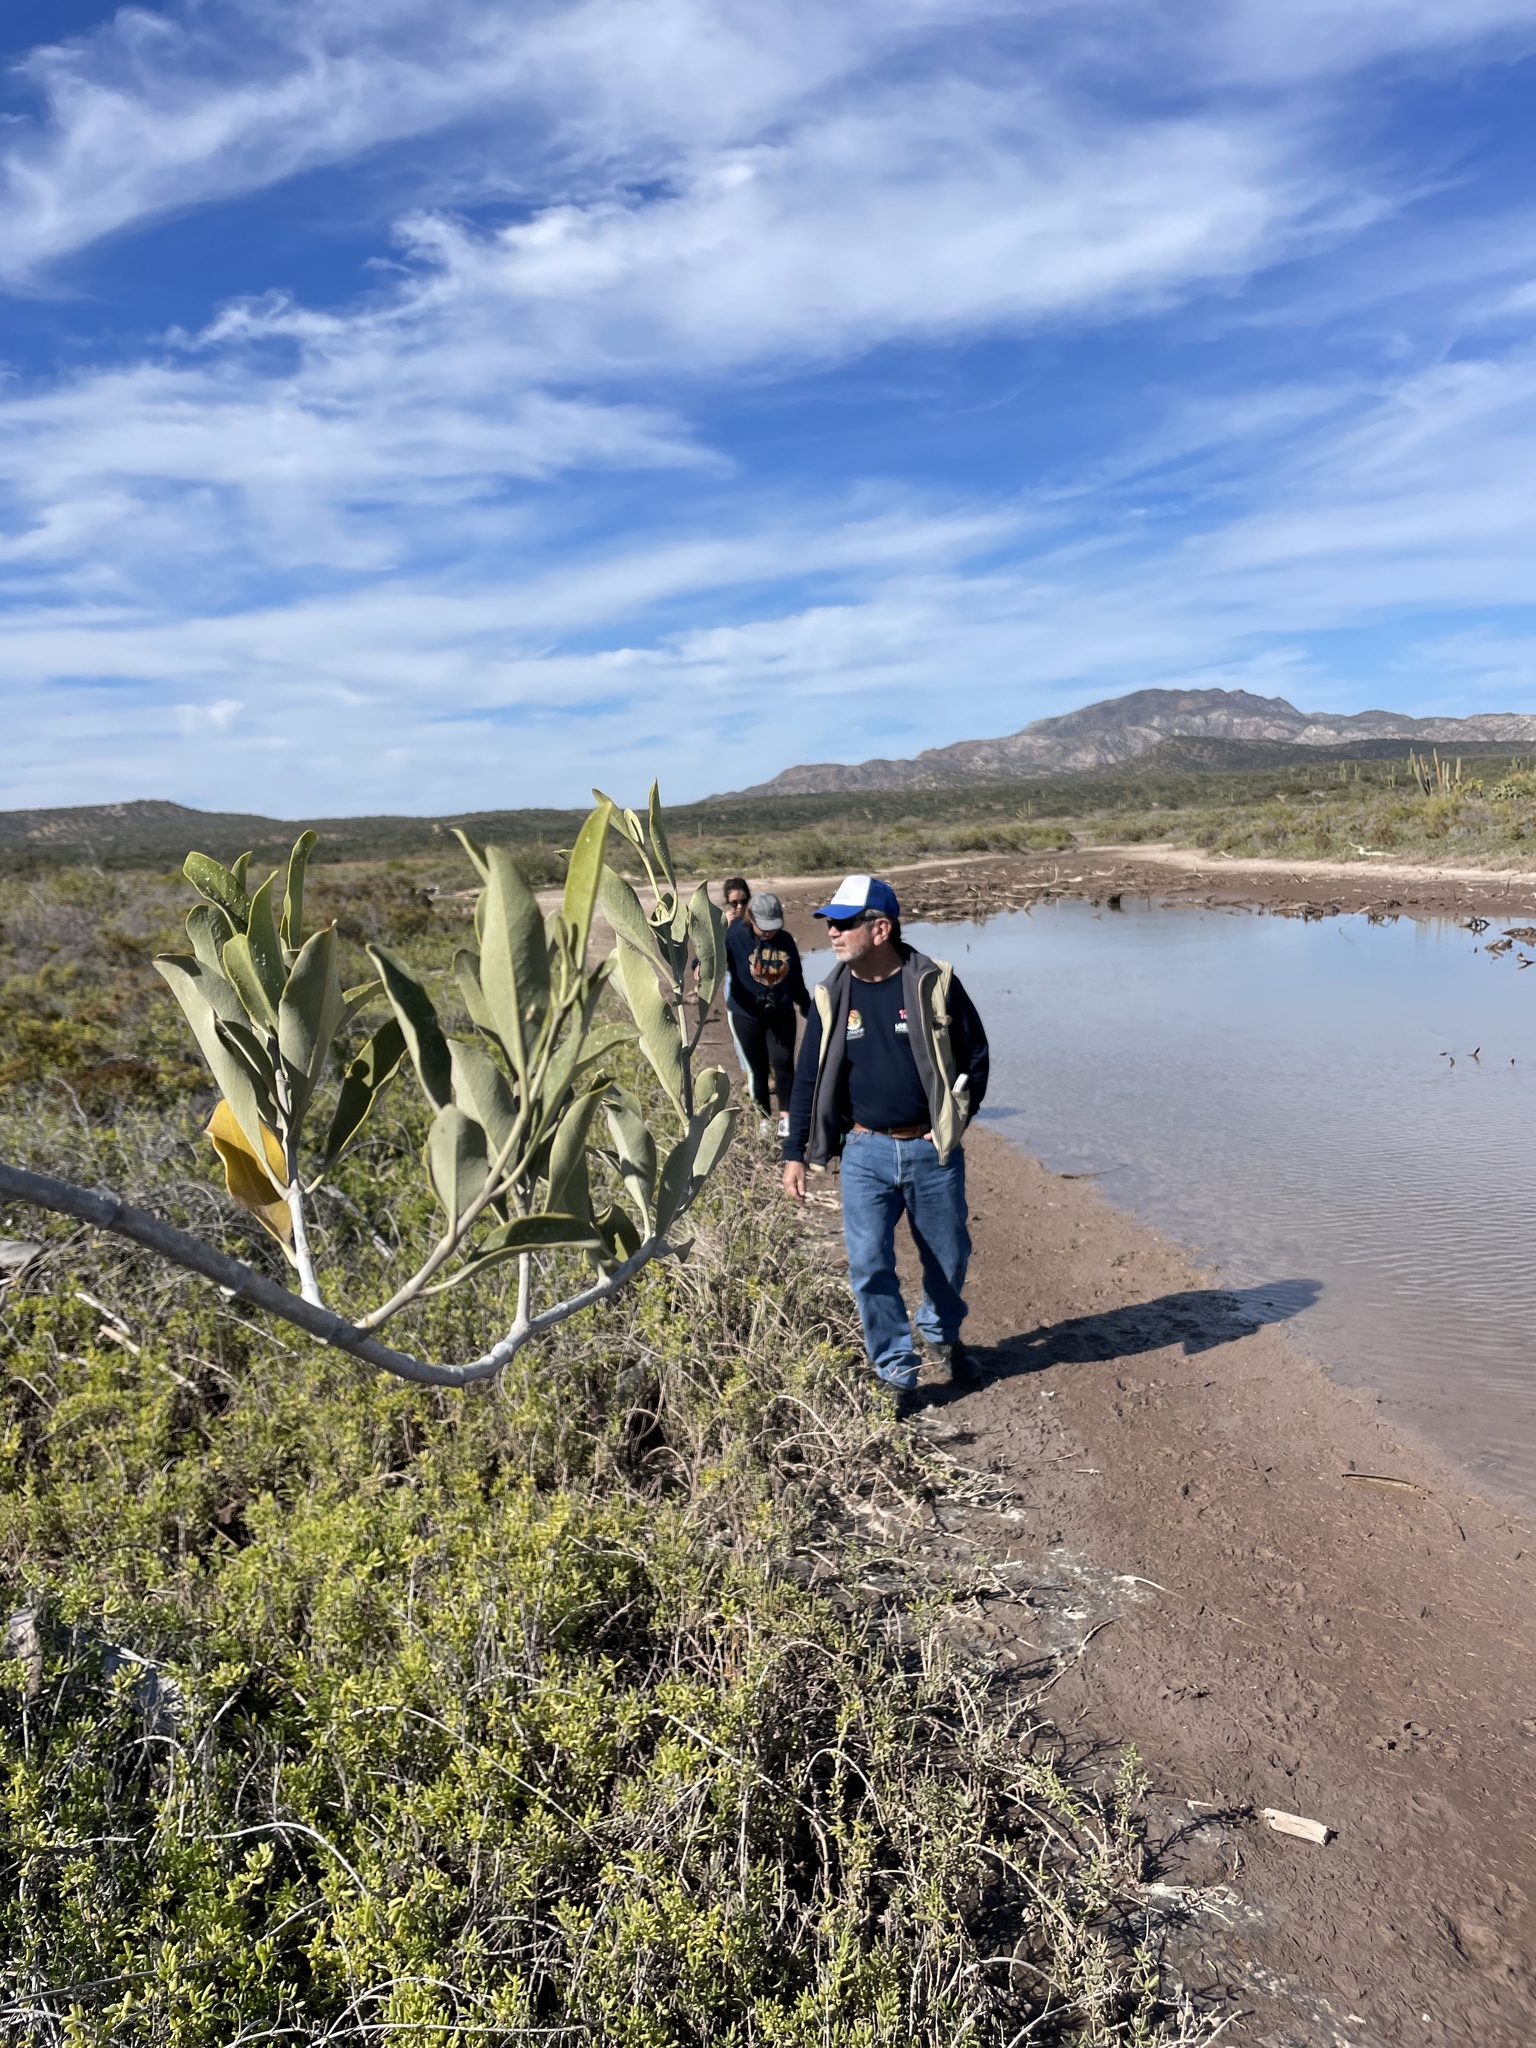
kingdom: Plantae
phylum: Tracheophyta
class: Magnoliopsida
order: Lamiales
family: Acanthaceae
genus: Avicennia
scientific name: Avicennia germinans
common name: Black mangrove
